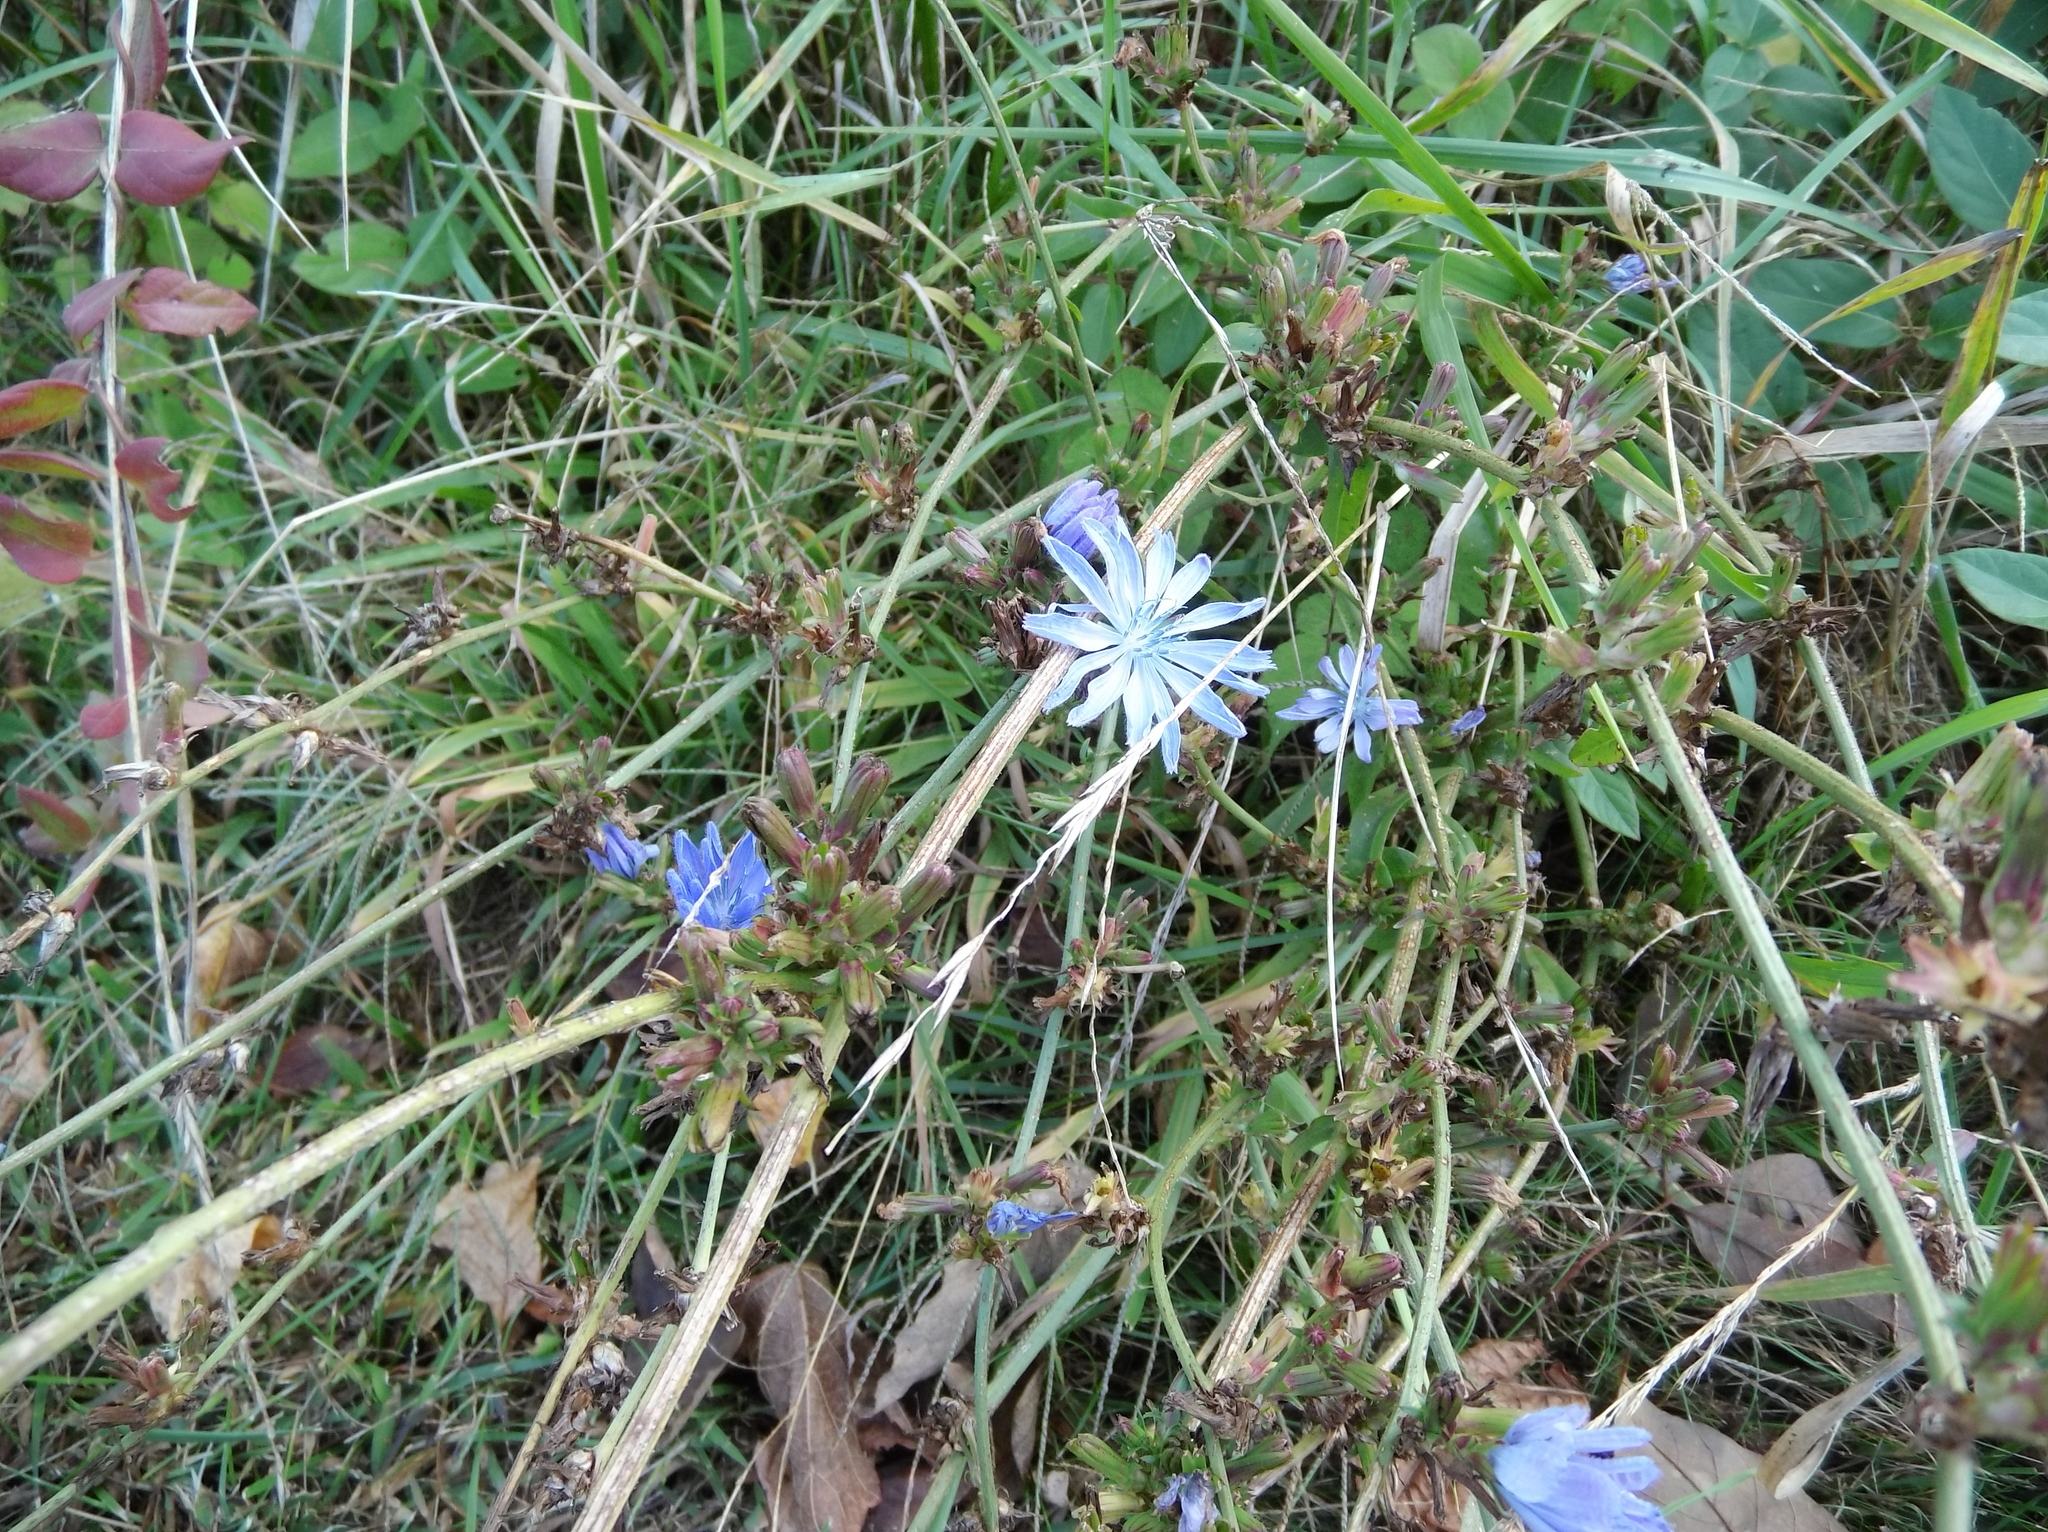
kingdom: Plantae
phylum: Tracheophyta
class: Magnoliopsida
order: Asterales
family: Asteraceae
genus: Cichorium
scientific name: Cichorium intybus
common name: Chicory
